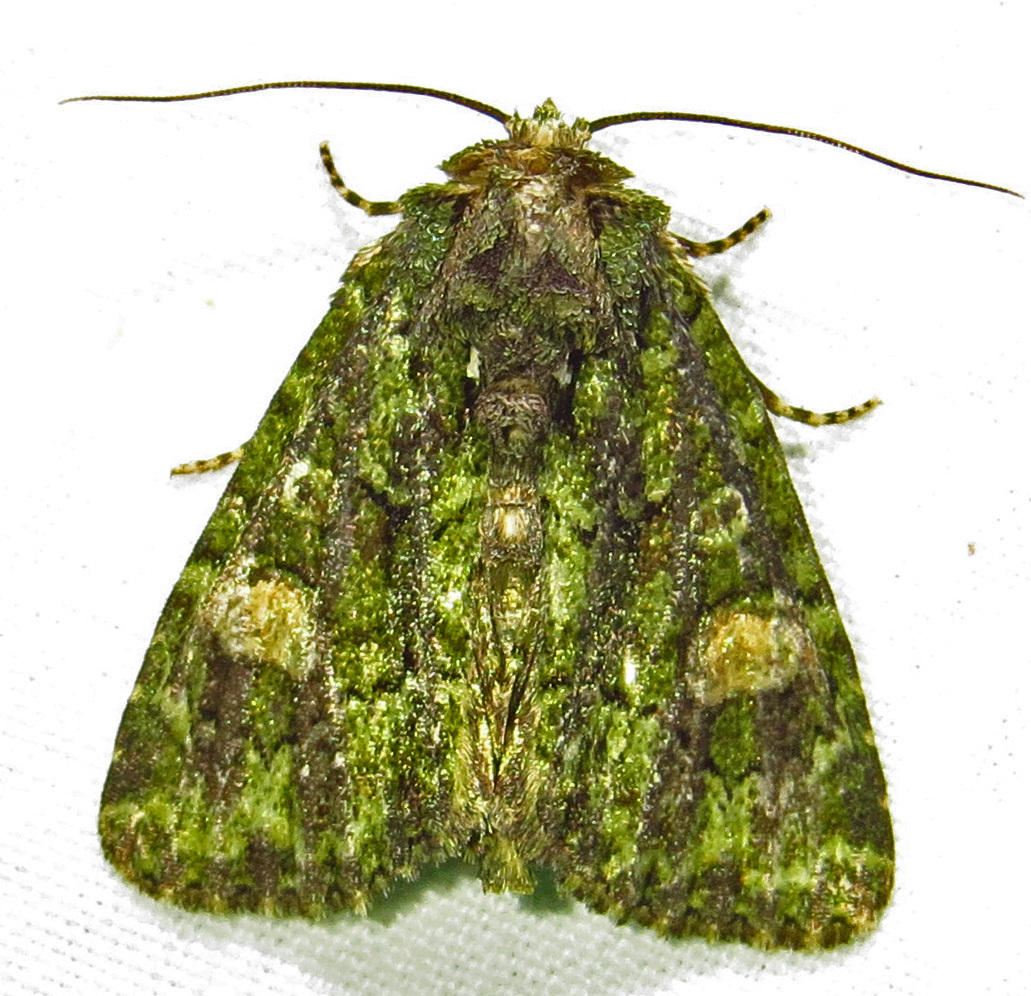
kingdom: Animalia
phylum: Arthropoda
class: Insecta
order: Lepidoptera
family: Noctuidae
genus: Phosphila
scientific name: Phosphila miselioides
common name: Spotted phosphila moth
